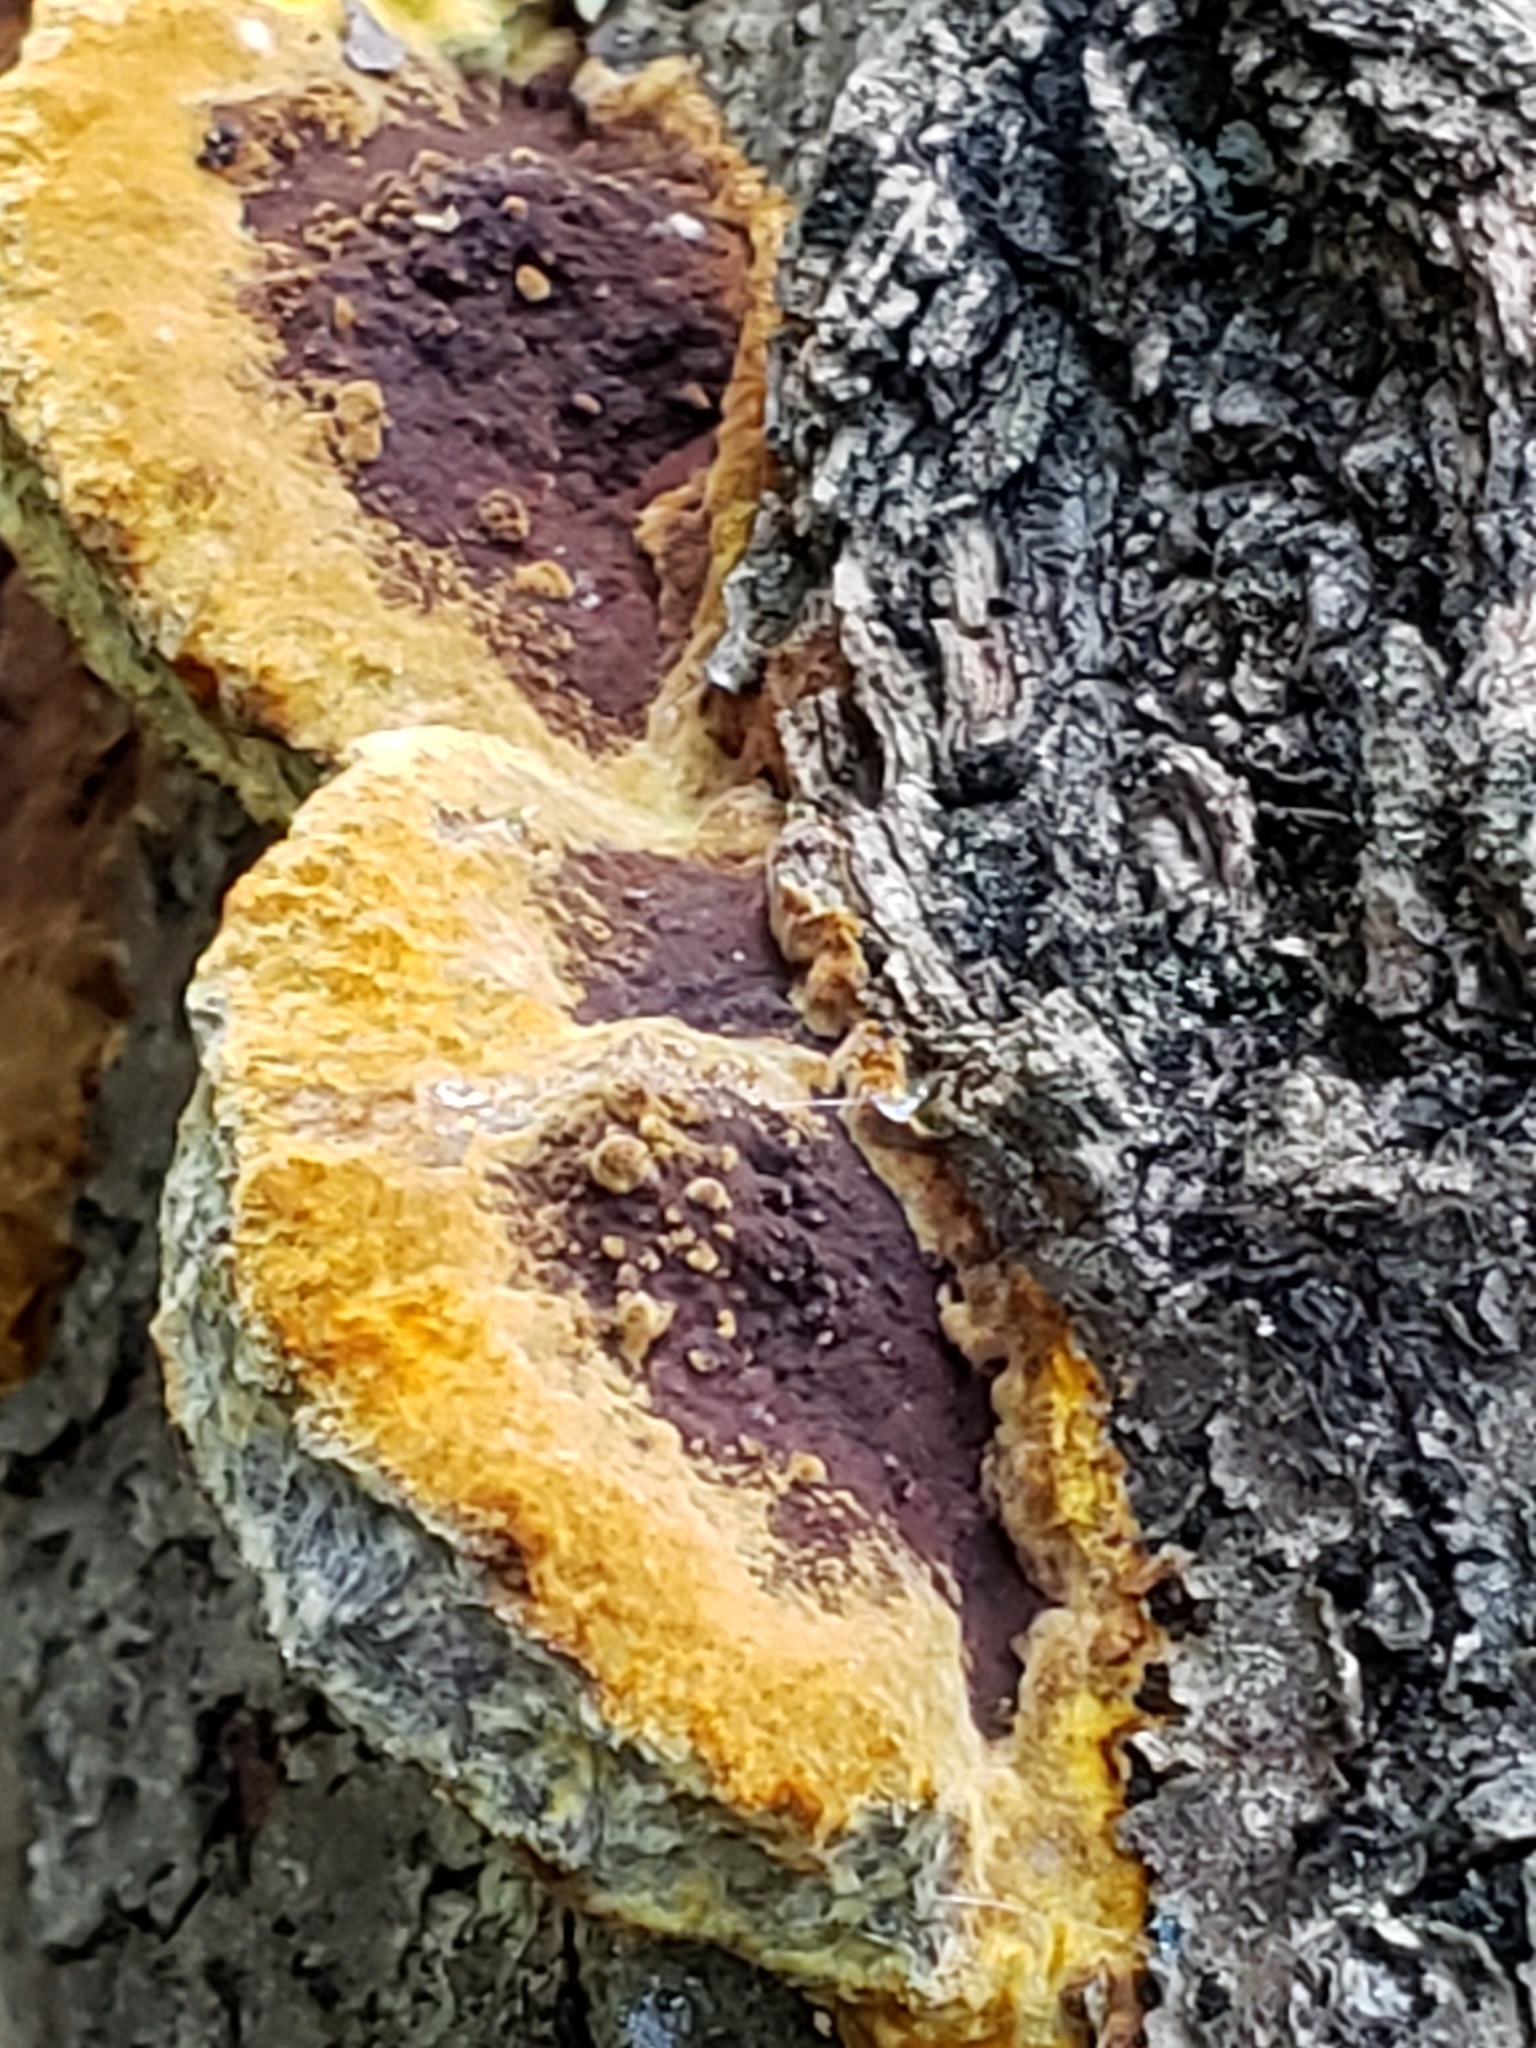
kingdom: Fungi
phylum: Basidiomycota
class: Agaricomycetes
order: Hymenochaetales
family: Hymenochaetaceae
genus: Phellinus
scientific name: Phellinus gilvus
